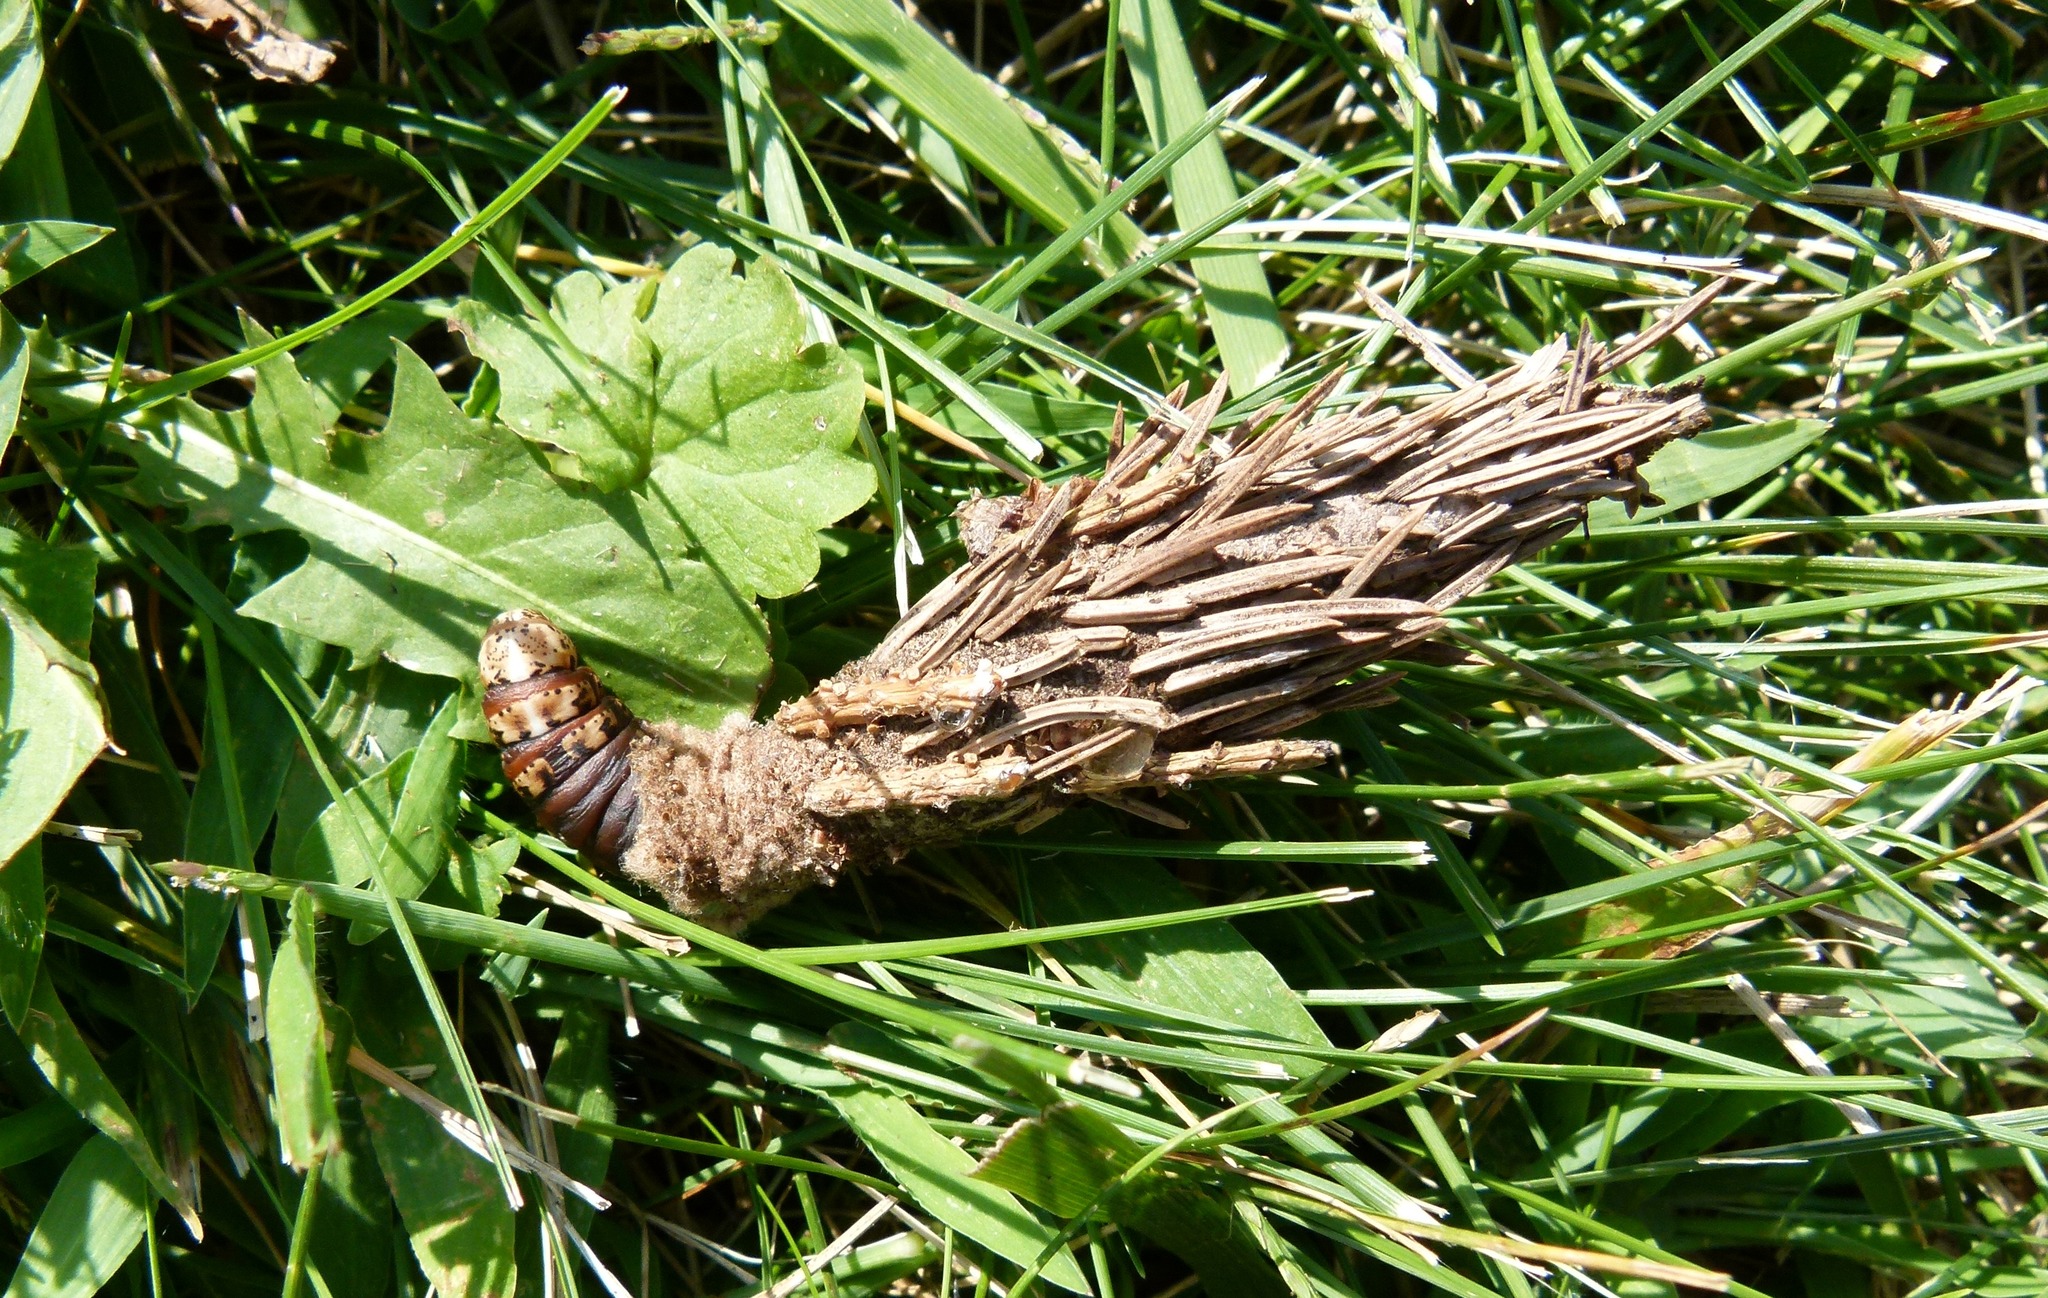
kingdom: Animalia
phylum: Arthropoda
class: Insecta
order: Lepidoptera
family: Psychidae
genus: Thyridopteryx
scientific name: Thyridopteryx ephemeraeformis
